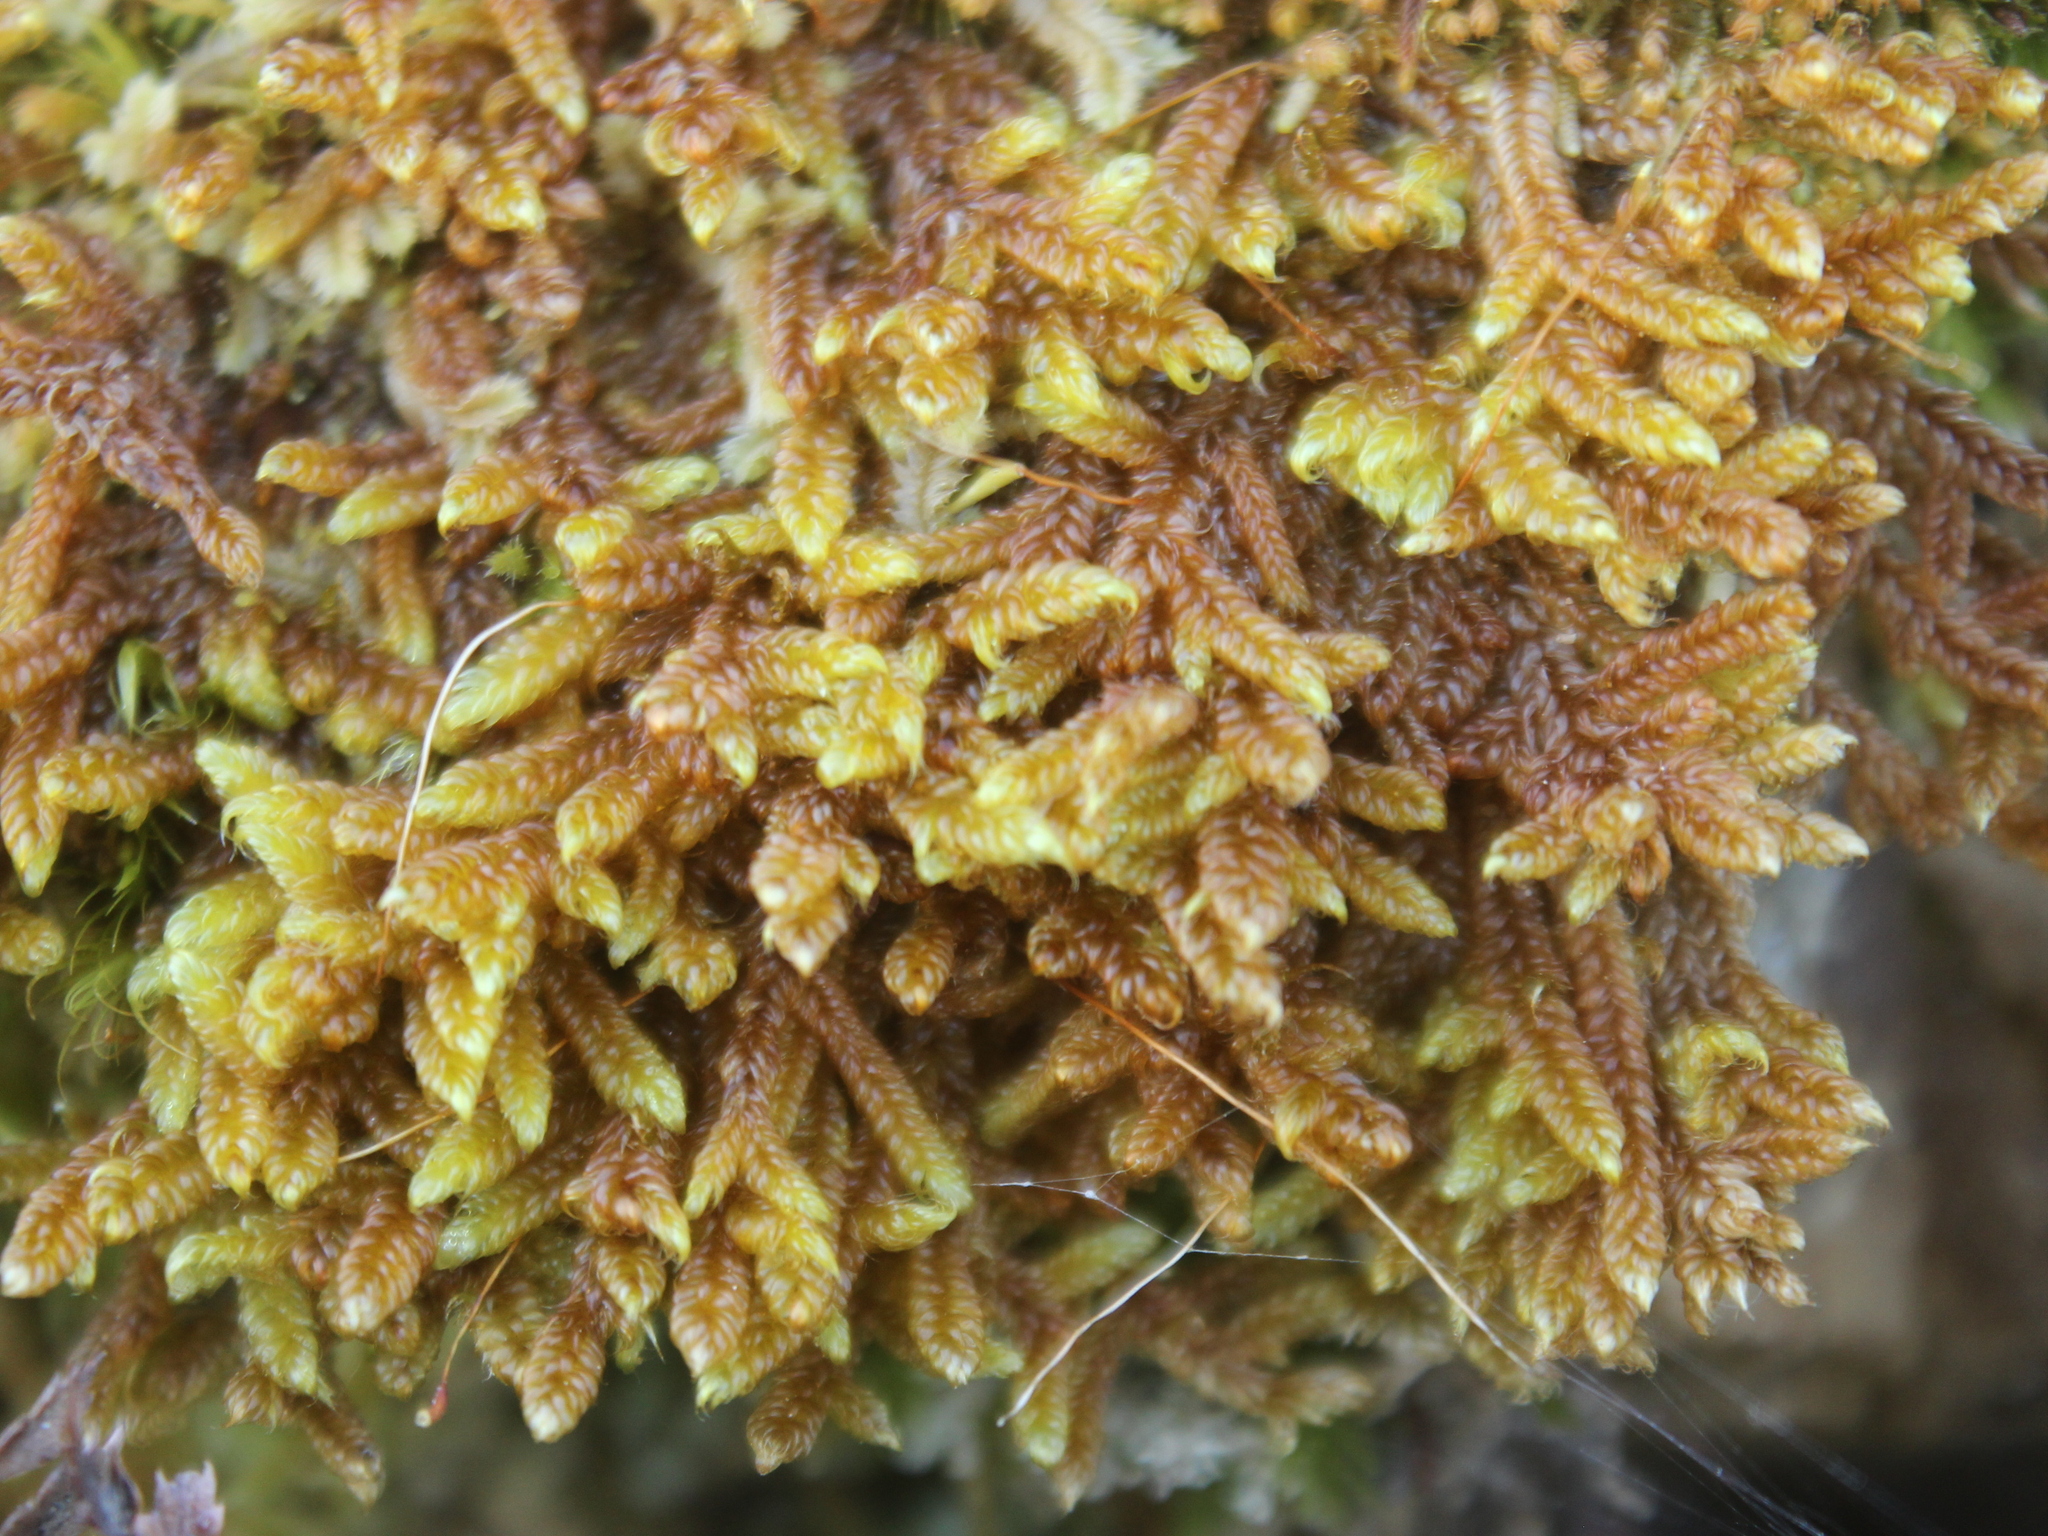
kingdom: Plantae
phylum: Bryophyta
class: Bryopsida
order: Hypnales
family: Hypnaceae
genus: Hypnum
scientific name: Hypnum cupressiforme
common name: Cypress-leaved plait-moss
